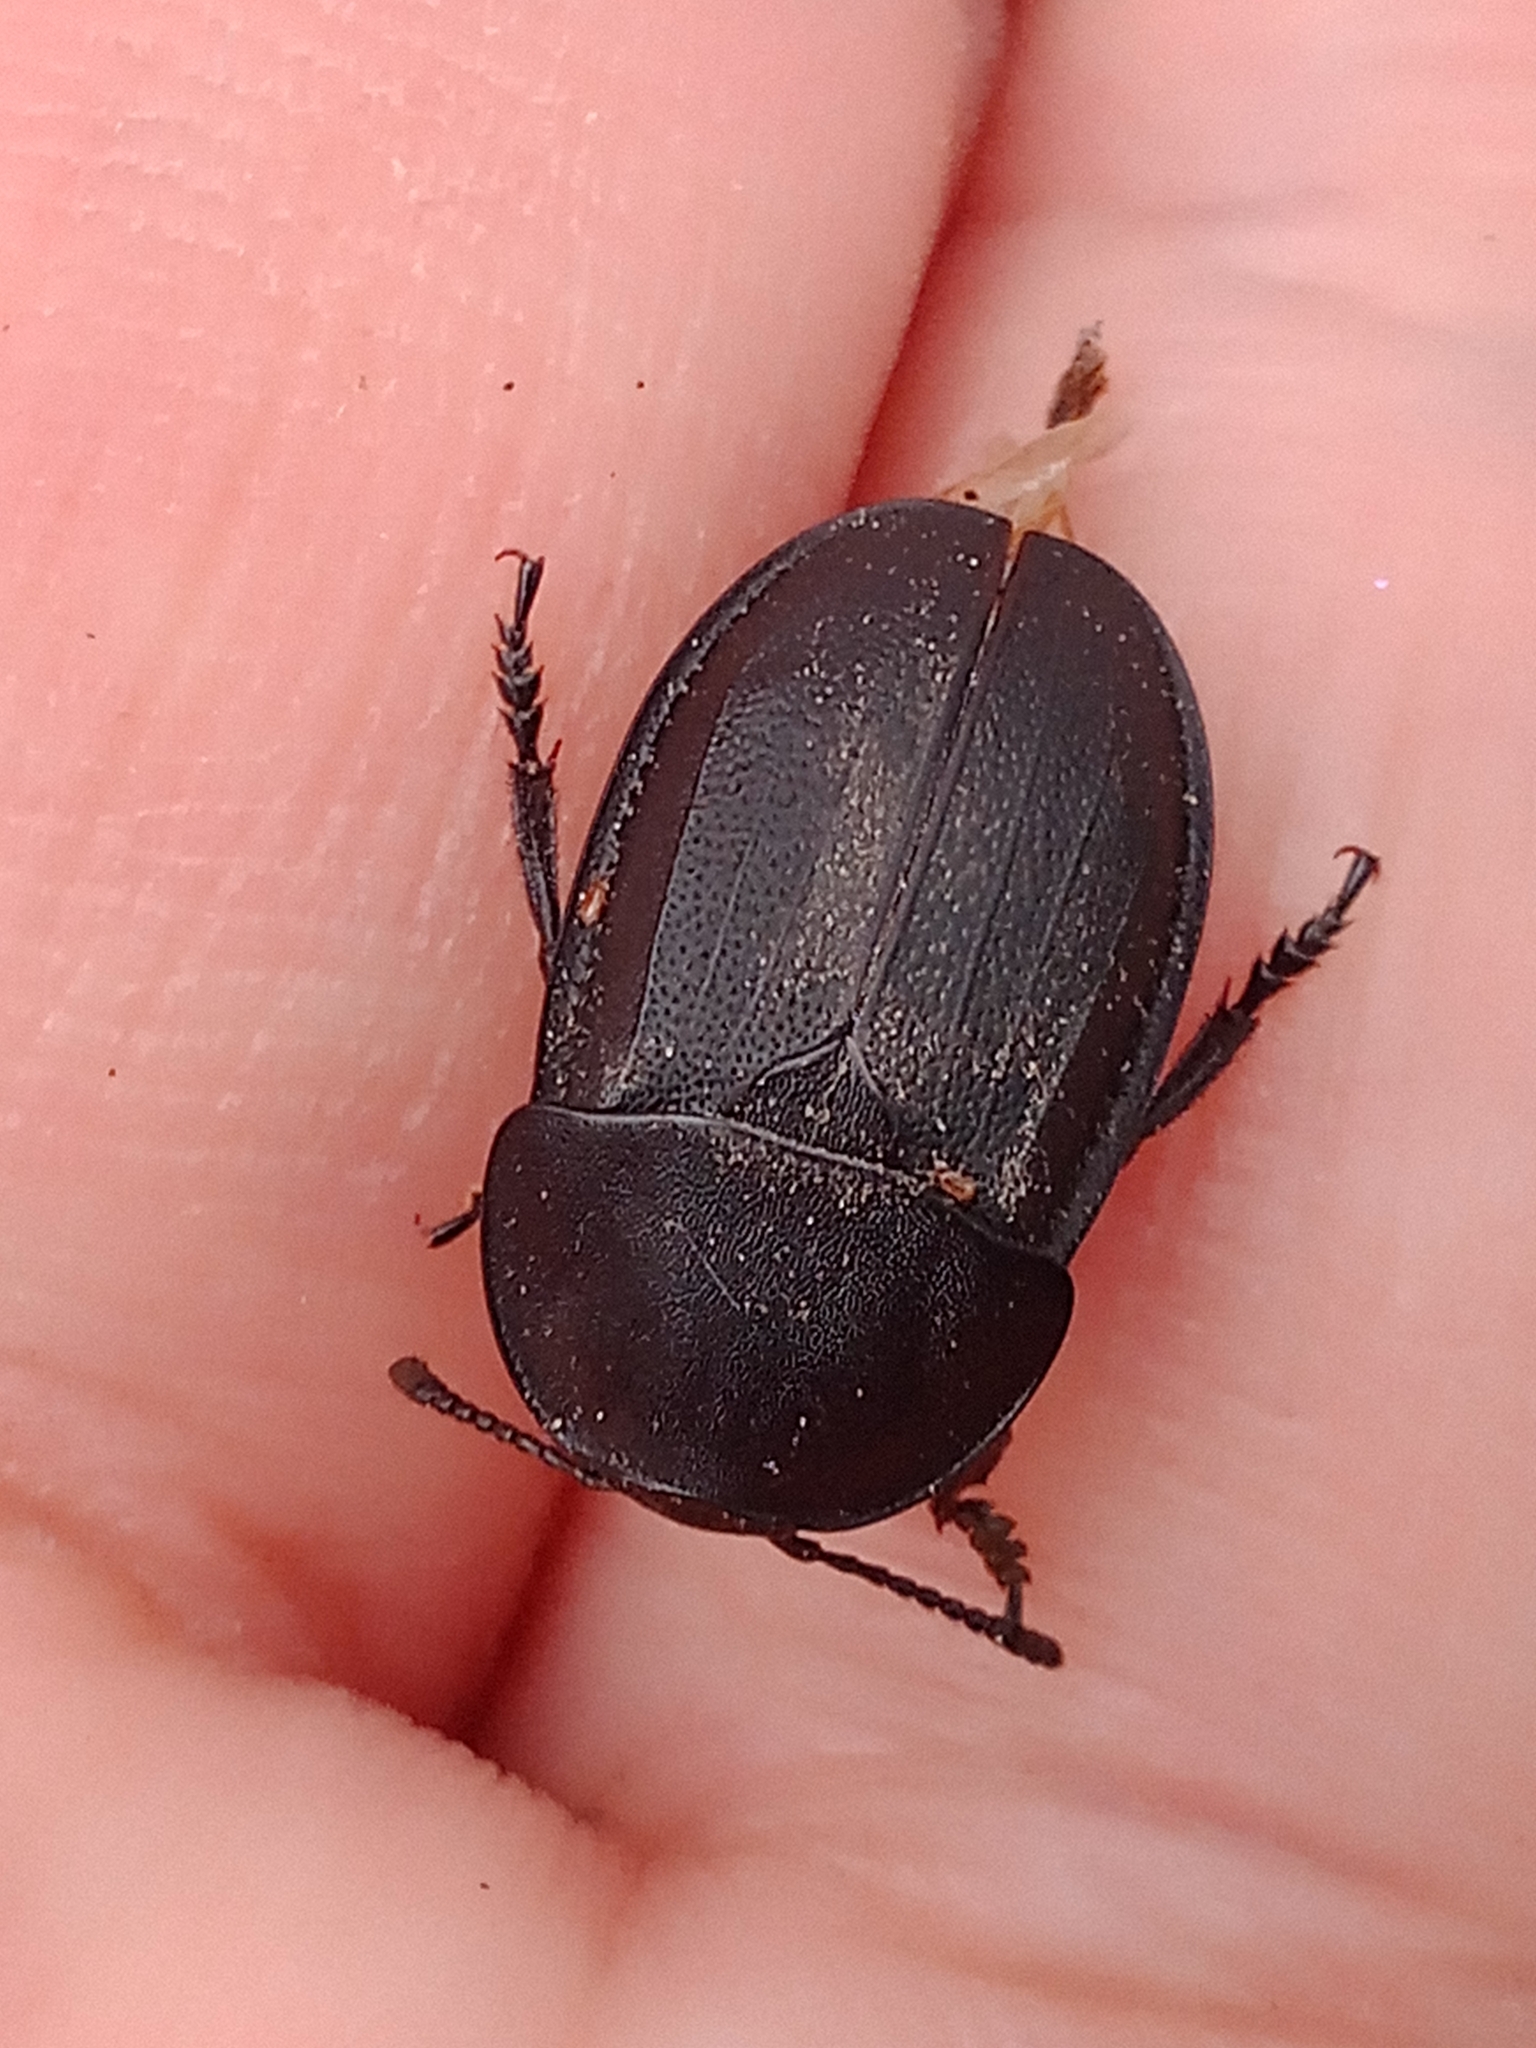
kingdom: Animalia
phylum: Arthropoda
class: Insecta
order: Coleoptera
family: Staphylinidae
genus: Silpha
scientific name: Silpha obscura
